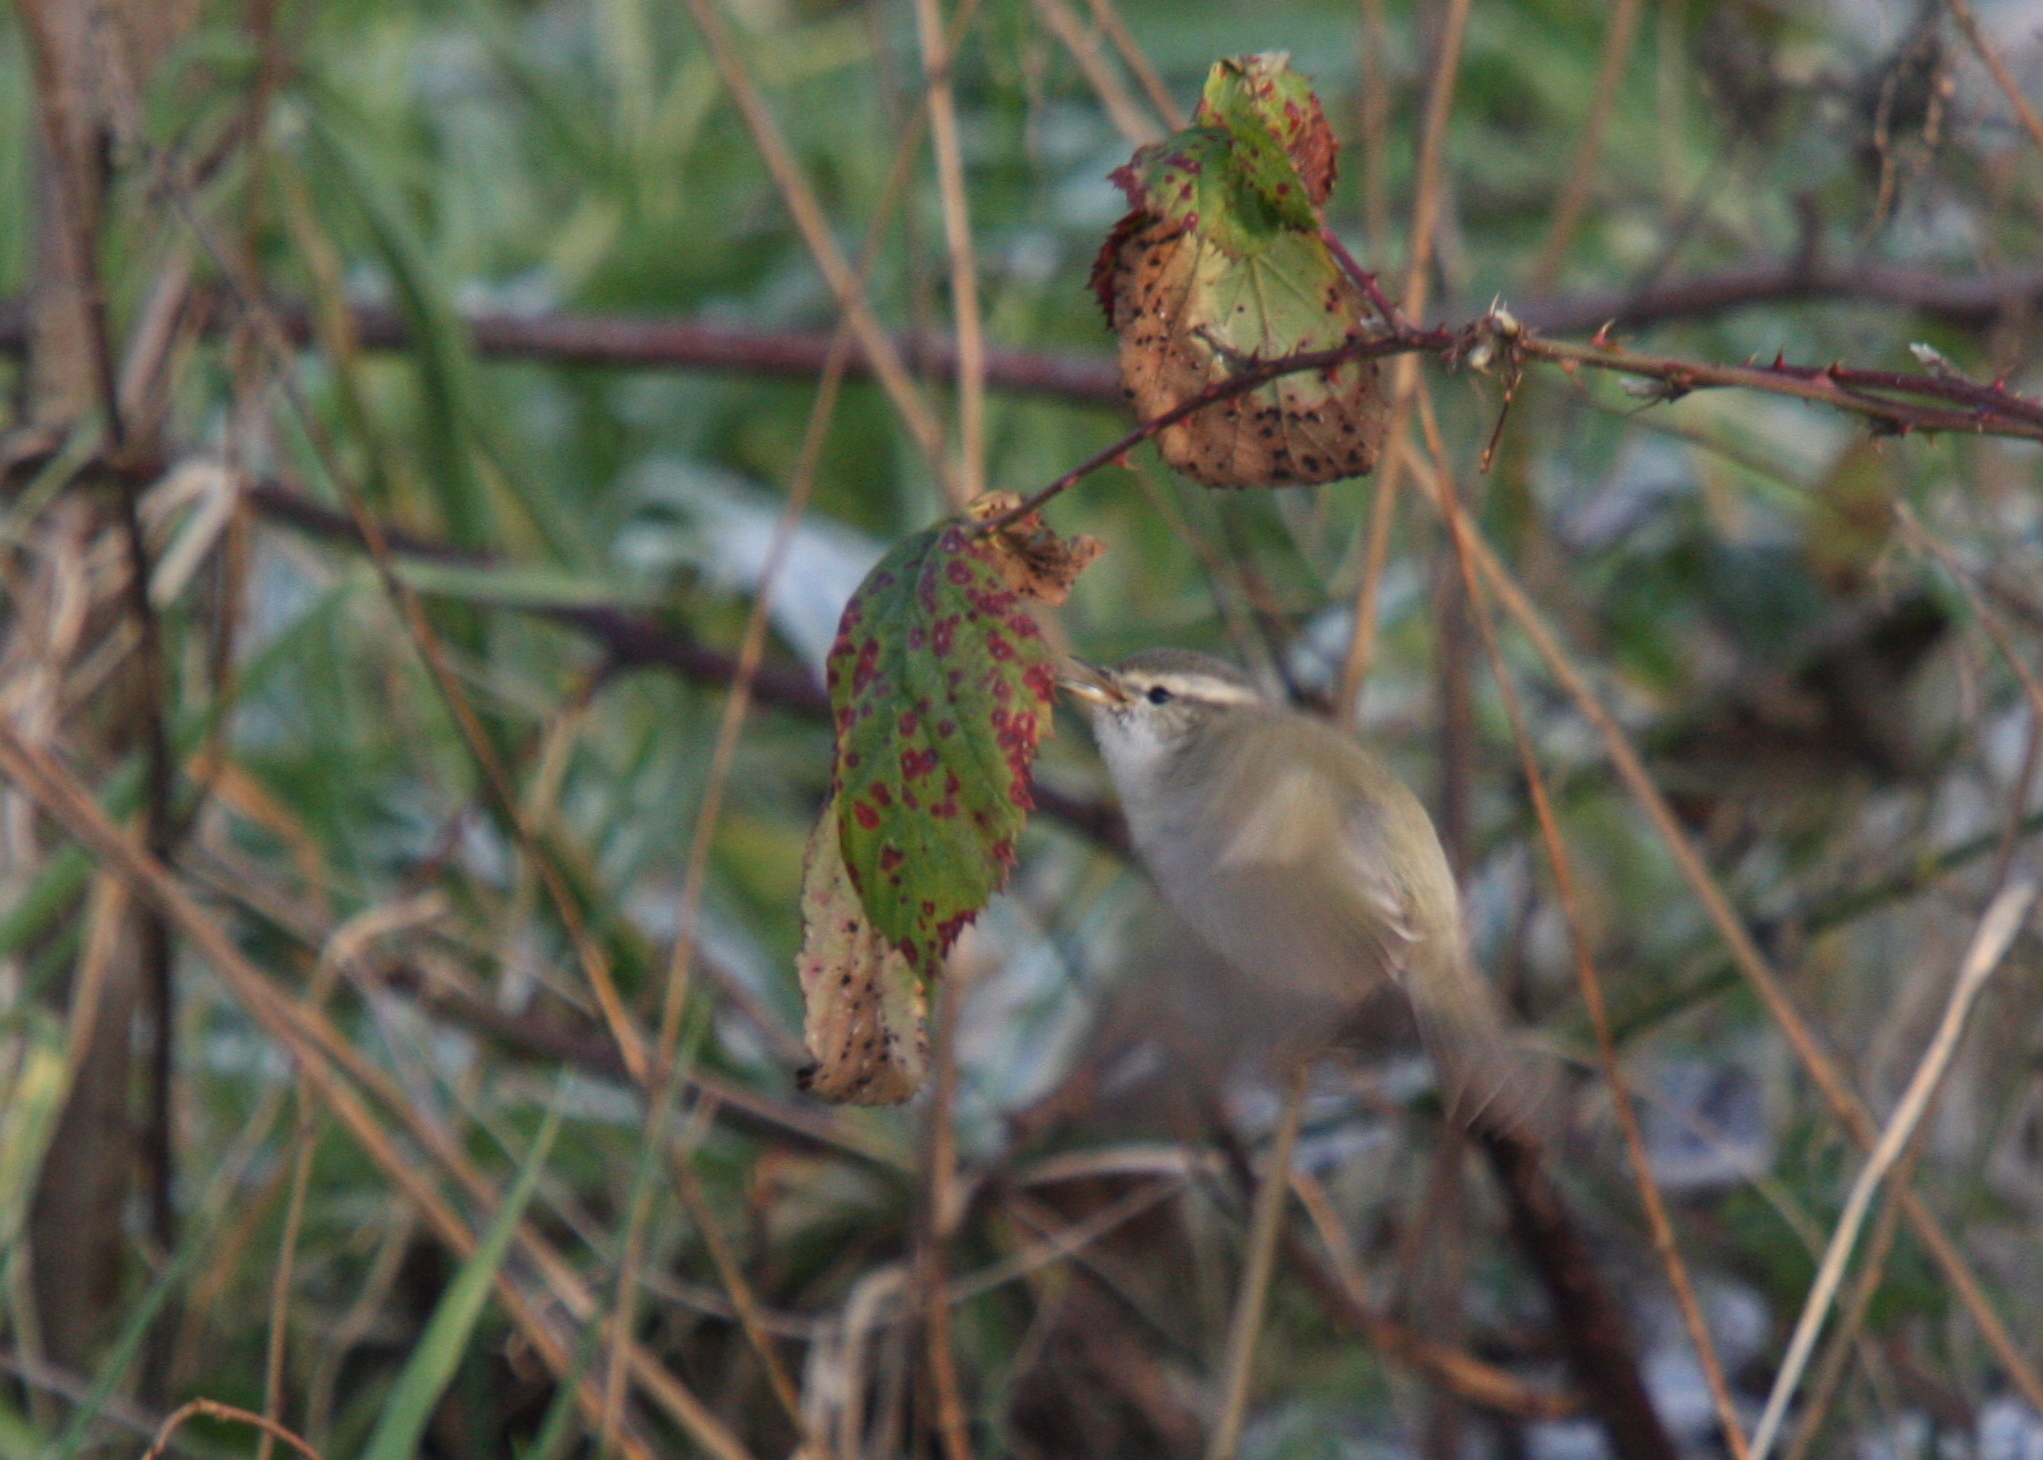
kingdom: Animalia
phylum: Chordata
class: Aves
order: Passeriformes
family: Phylloscopidae
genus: Phylloscopus
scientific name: Phylloscopus humei
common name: Hume's leaf warbler
